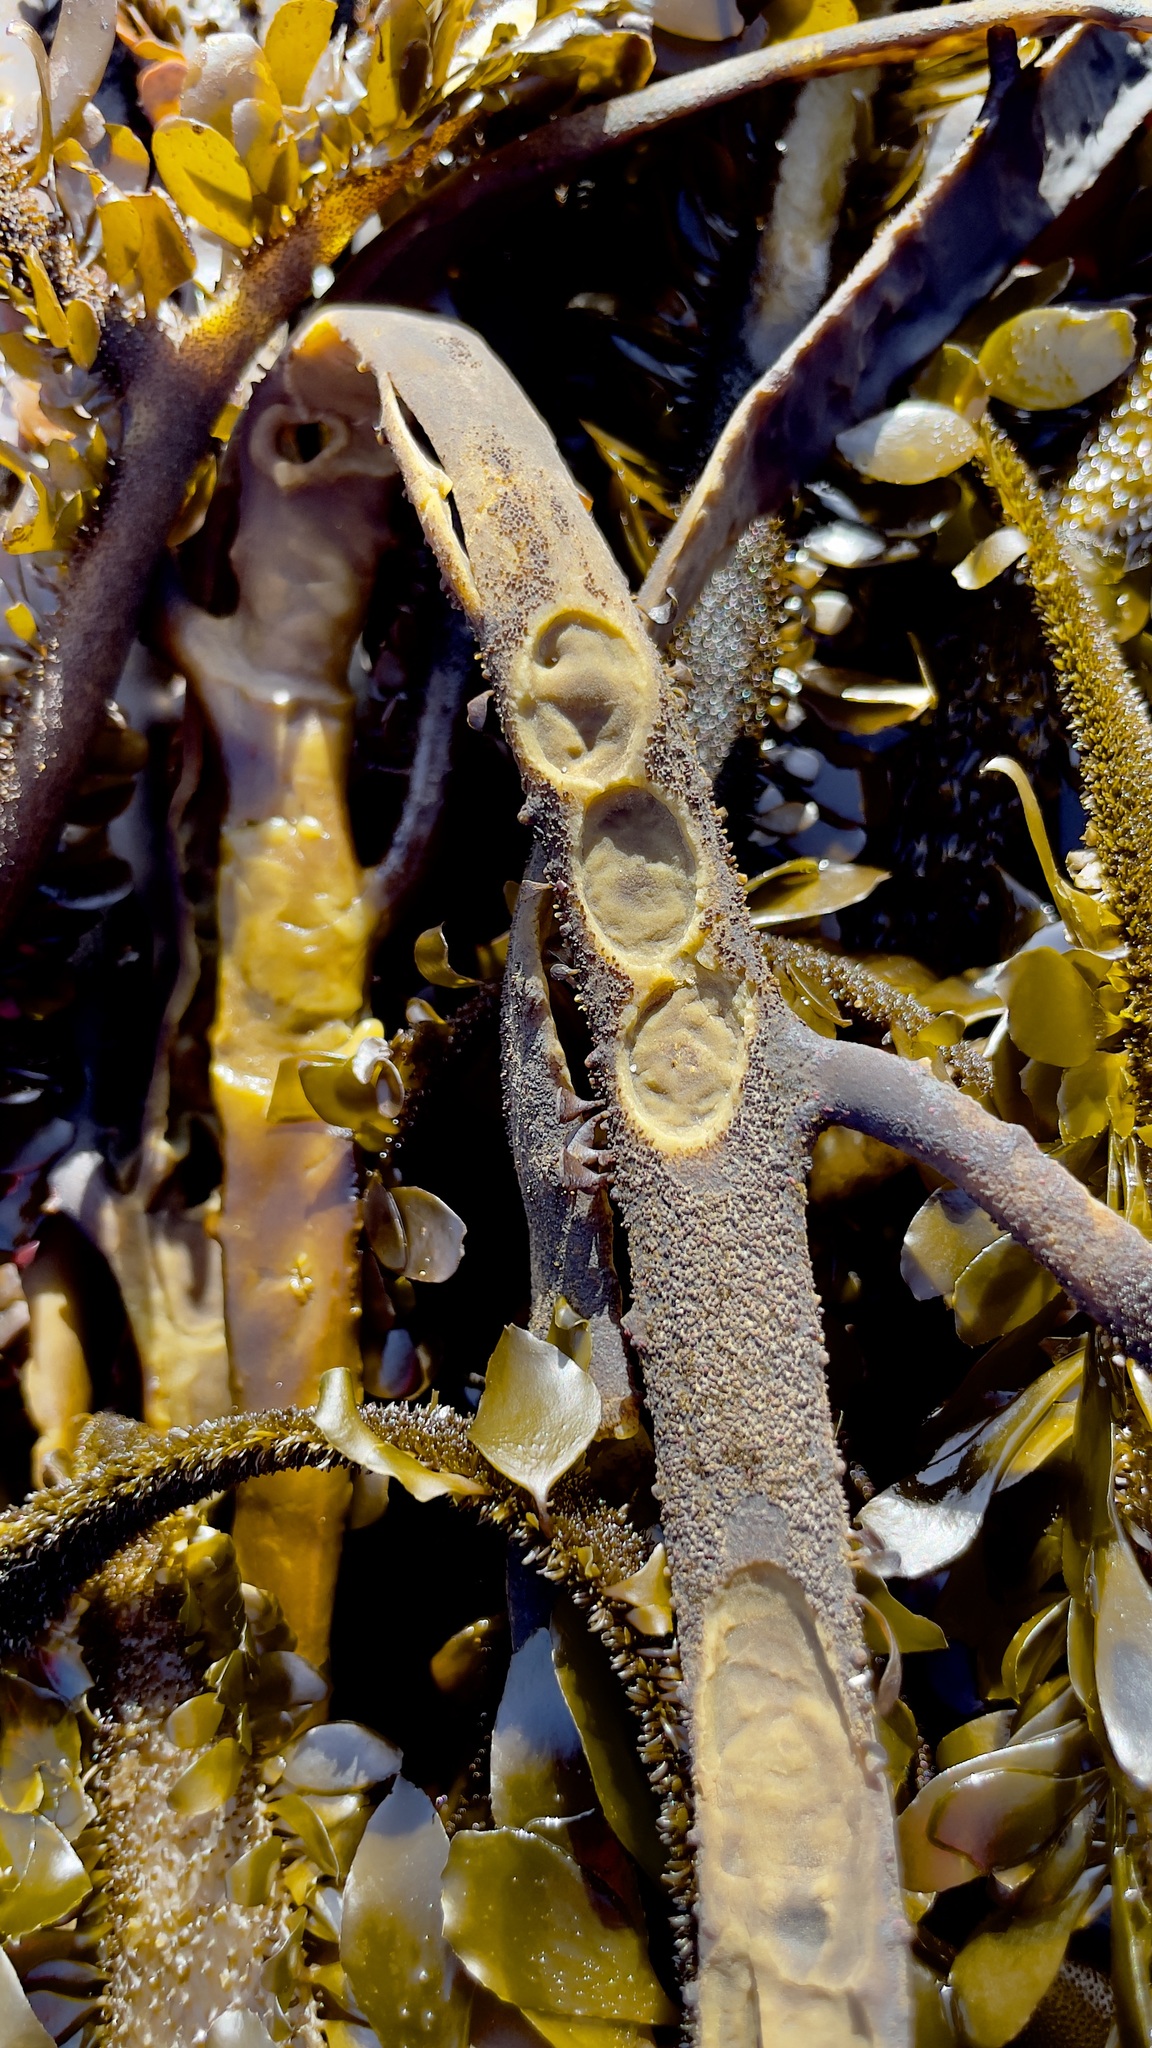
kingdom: Animalia
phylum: Mollusca
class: Gastropoda
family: Lottiidae
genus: Discurria
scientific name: Discurria insessa
